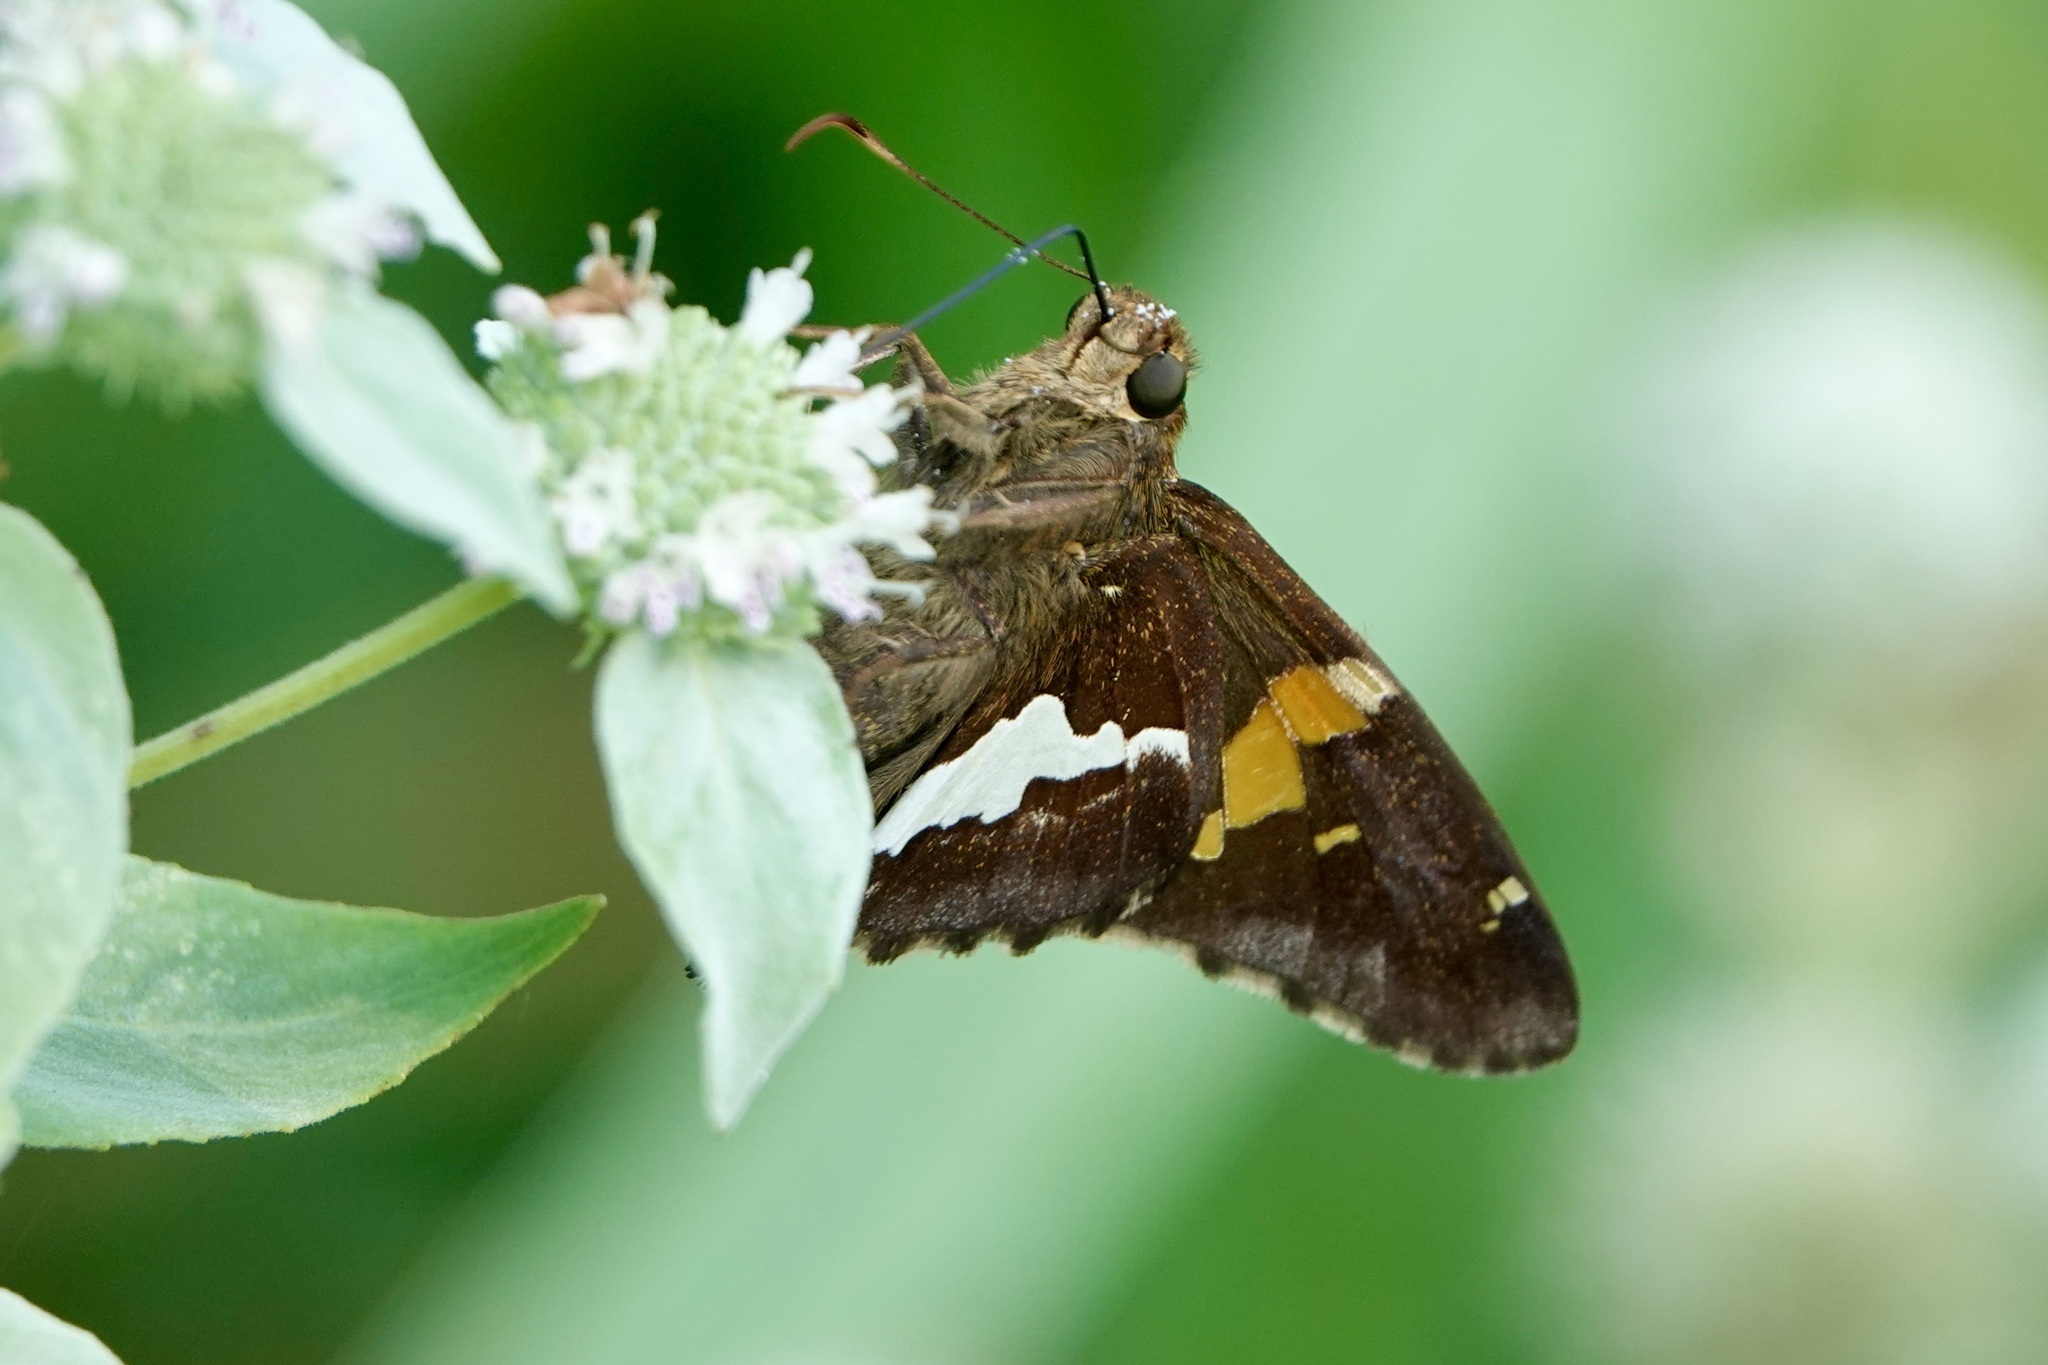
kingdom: Animalia
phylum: Arthropoda
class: Insecta
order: Lepidoptera
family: Hesperiidae
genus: Epargyreus
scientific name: Epargyreus clarus
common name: Silver-spotted skipper
